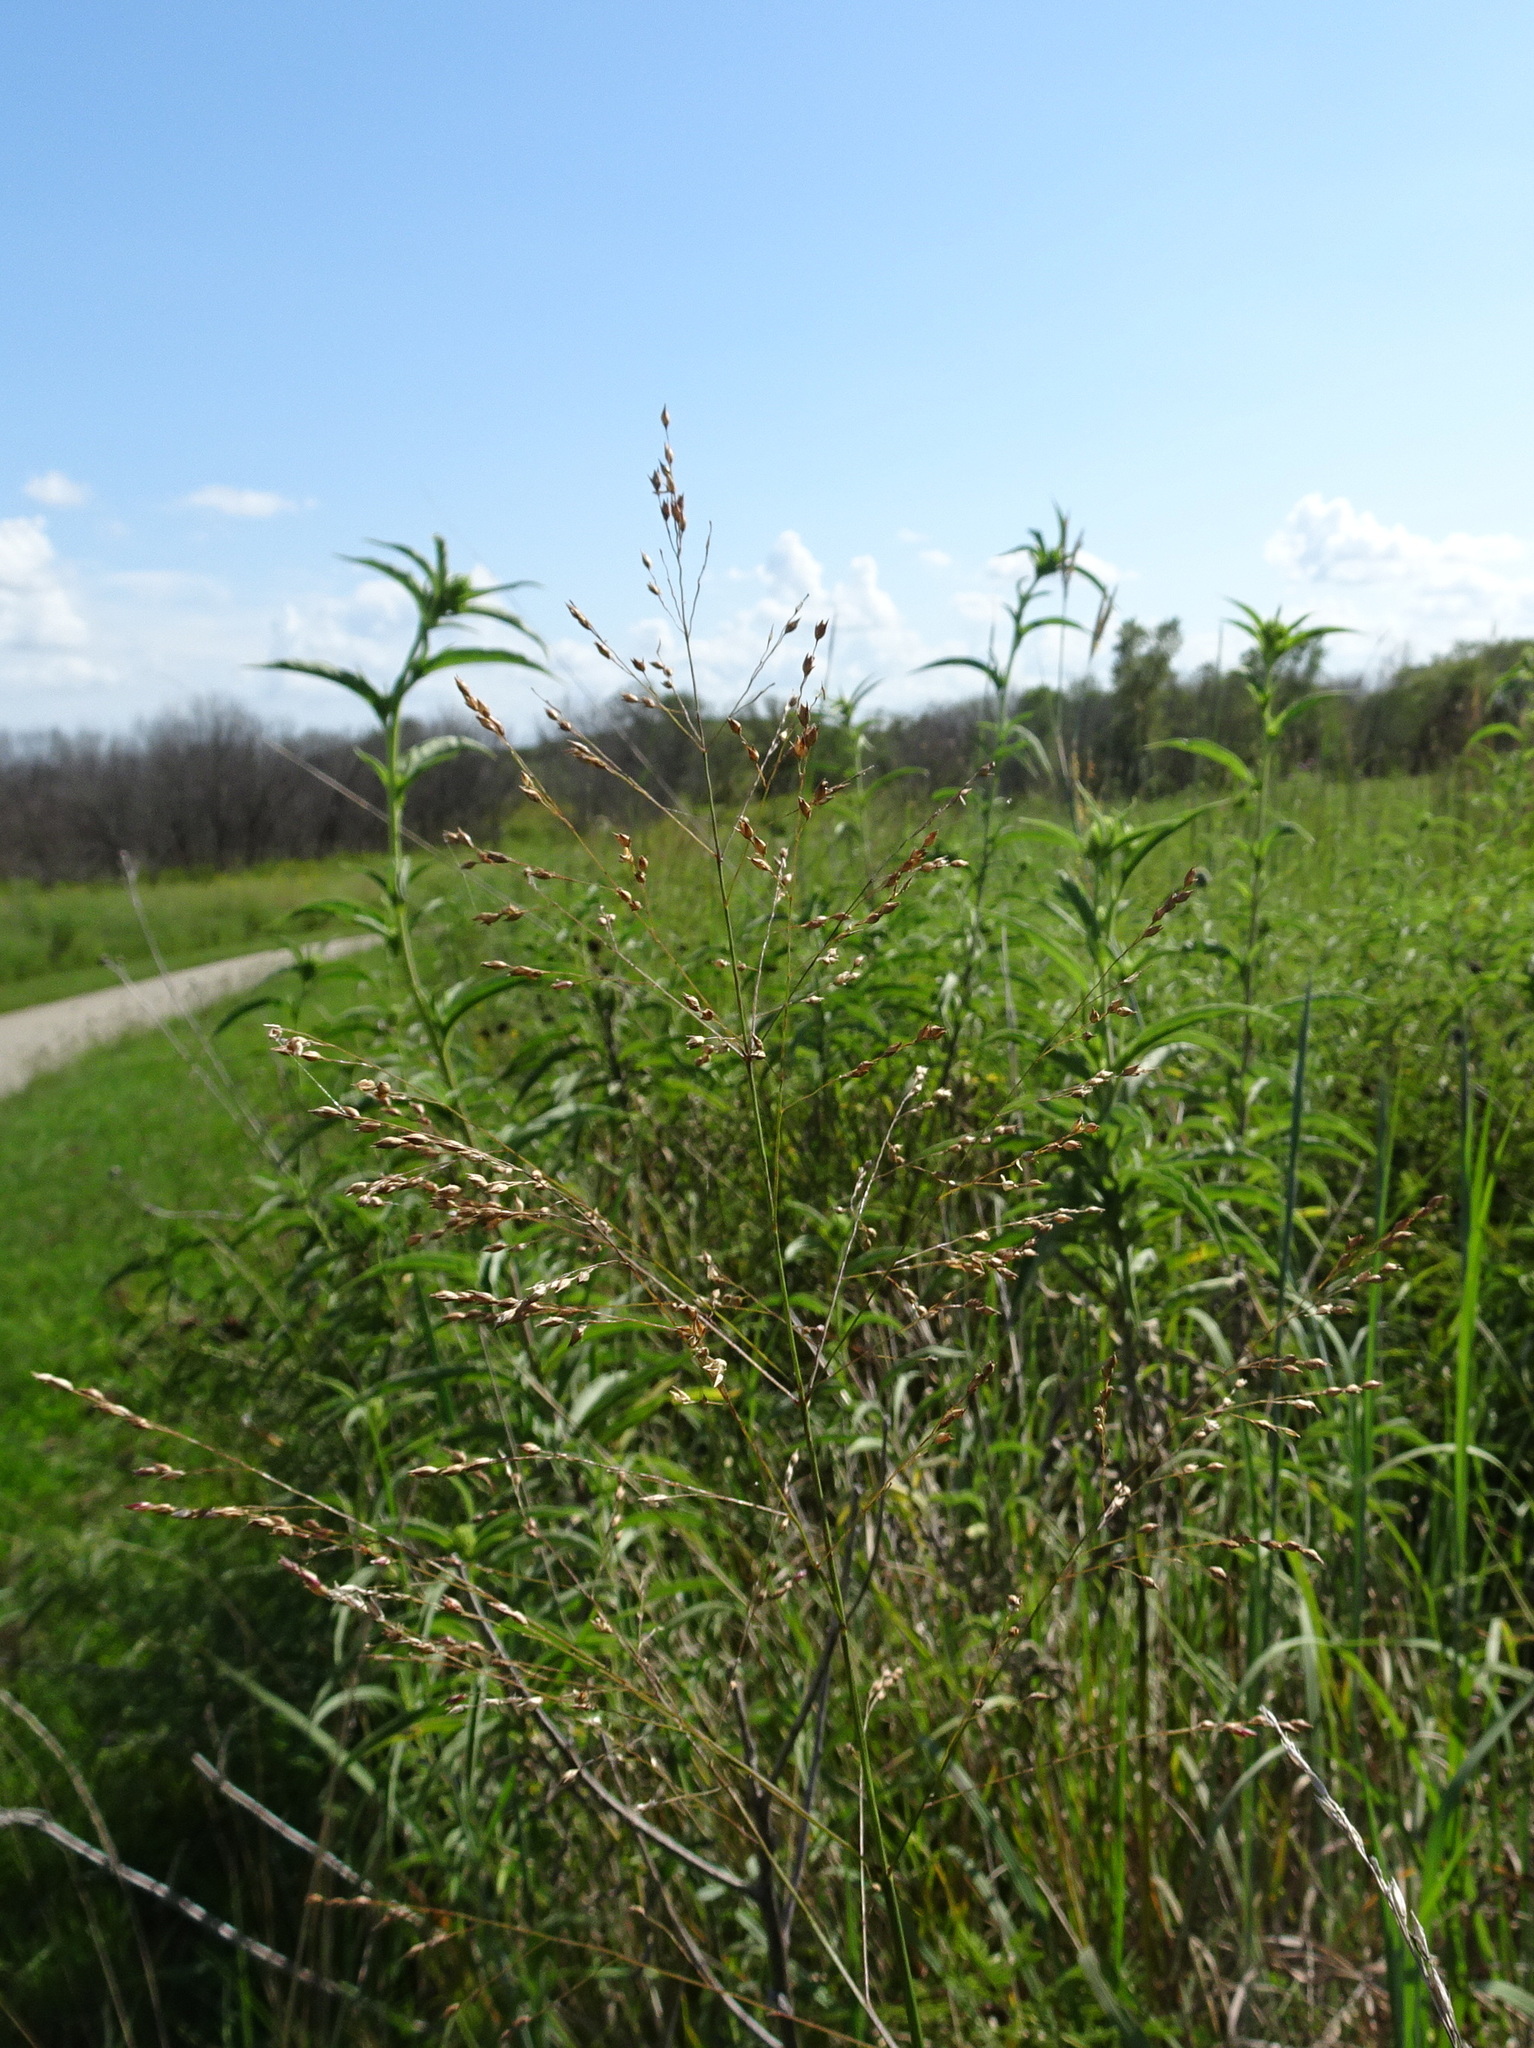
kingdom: Plantae
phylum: Tracheophyta
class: Liliopsida
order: Poales
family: Poaceae
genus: Panicum
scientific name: Panicum virgatum
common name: Switchgrass
